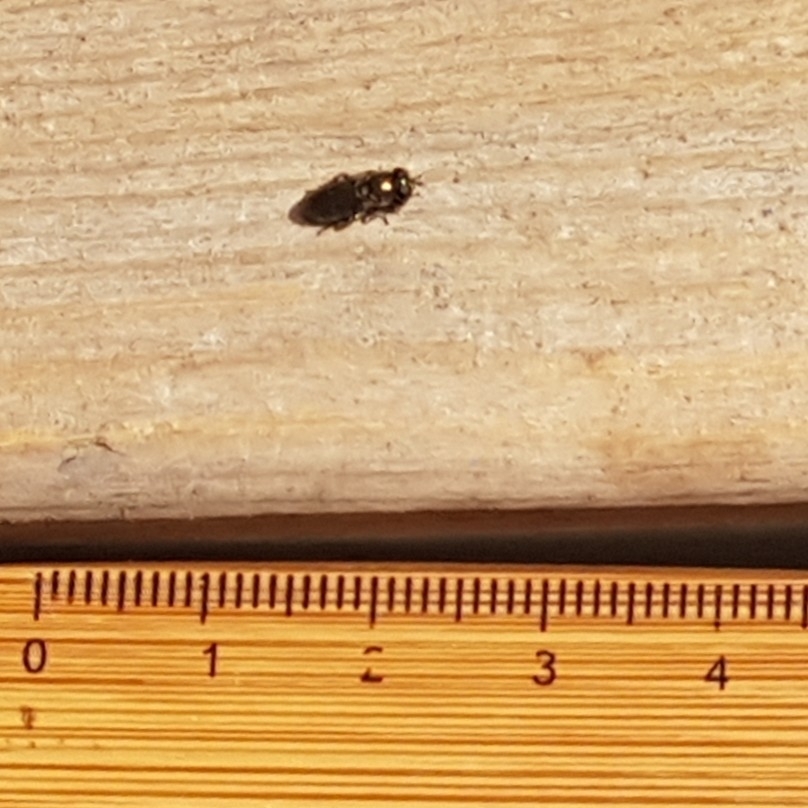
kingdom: Animalia
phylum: Arthropoda
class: Insecta
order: Diptera
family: Syrphidae
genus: Eumerus
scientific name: Eumerus
